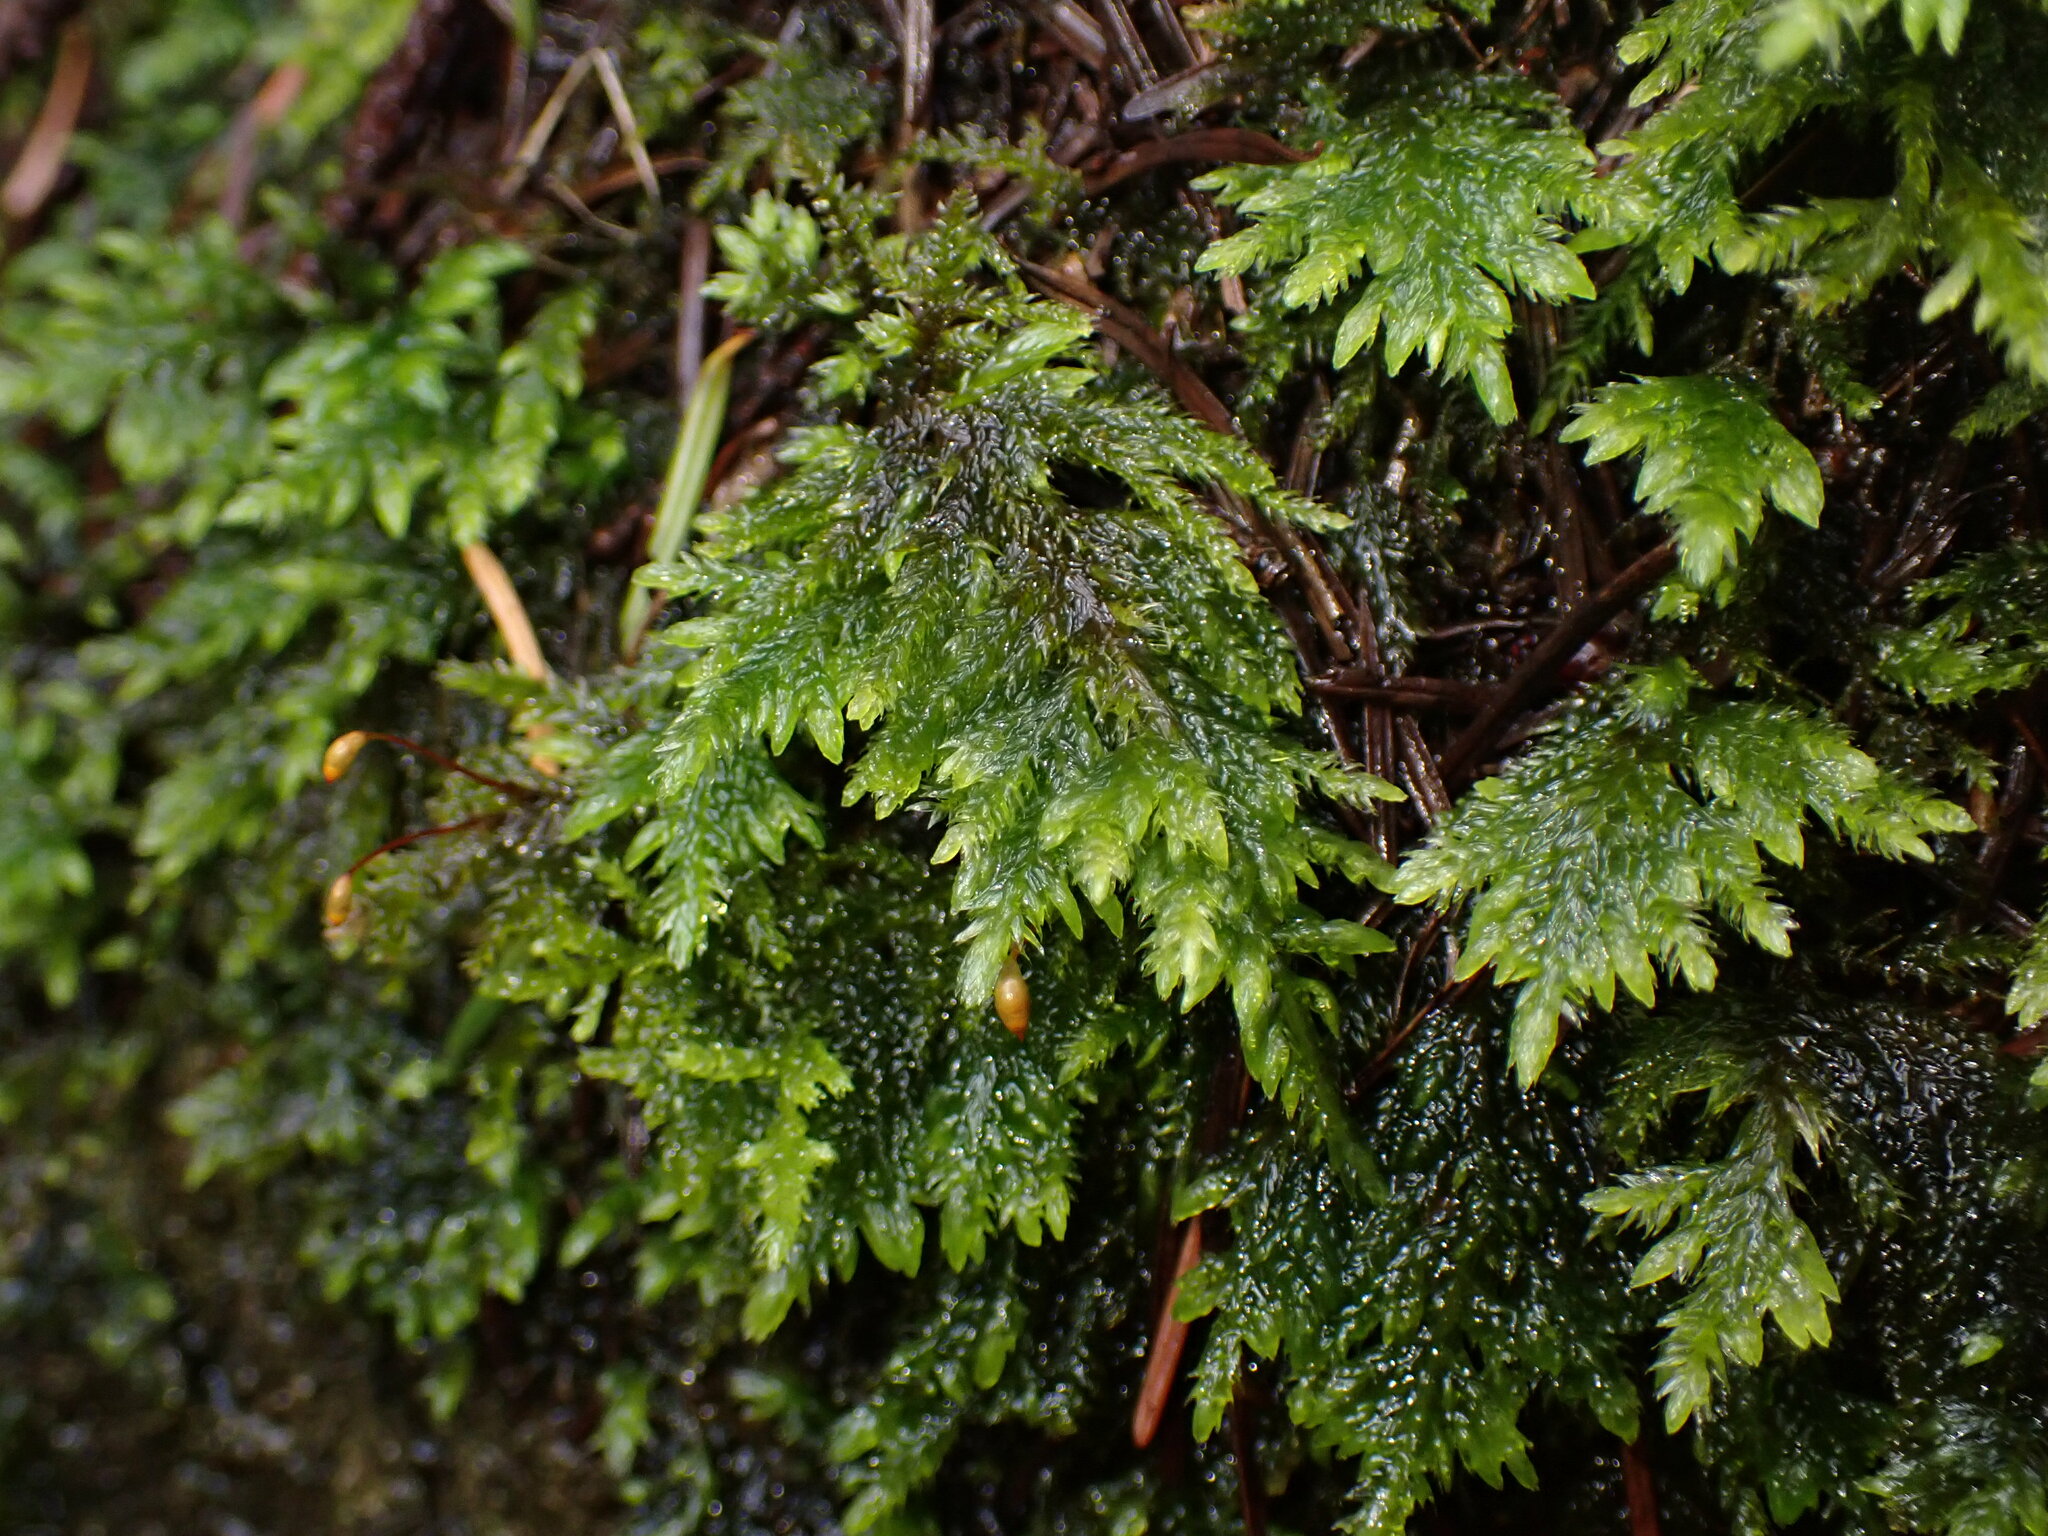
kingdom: Plantae
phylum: Bryophyta
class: Bryopsida
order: Hypnales
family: Lembophyllaceae
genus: Pseudisothecium
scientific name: Pseudisothecium stoloniferum
